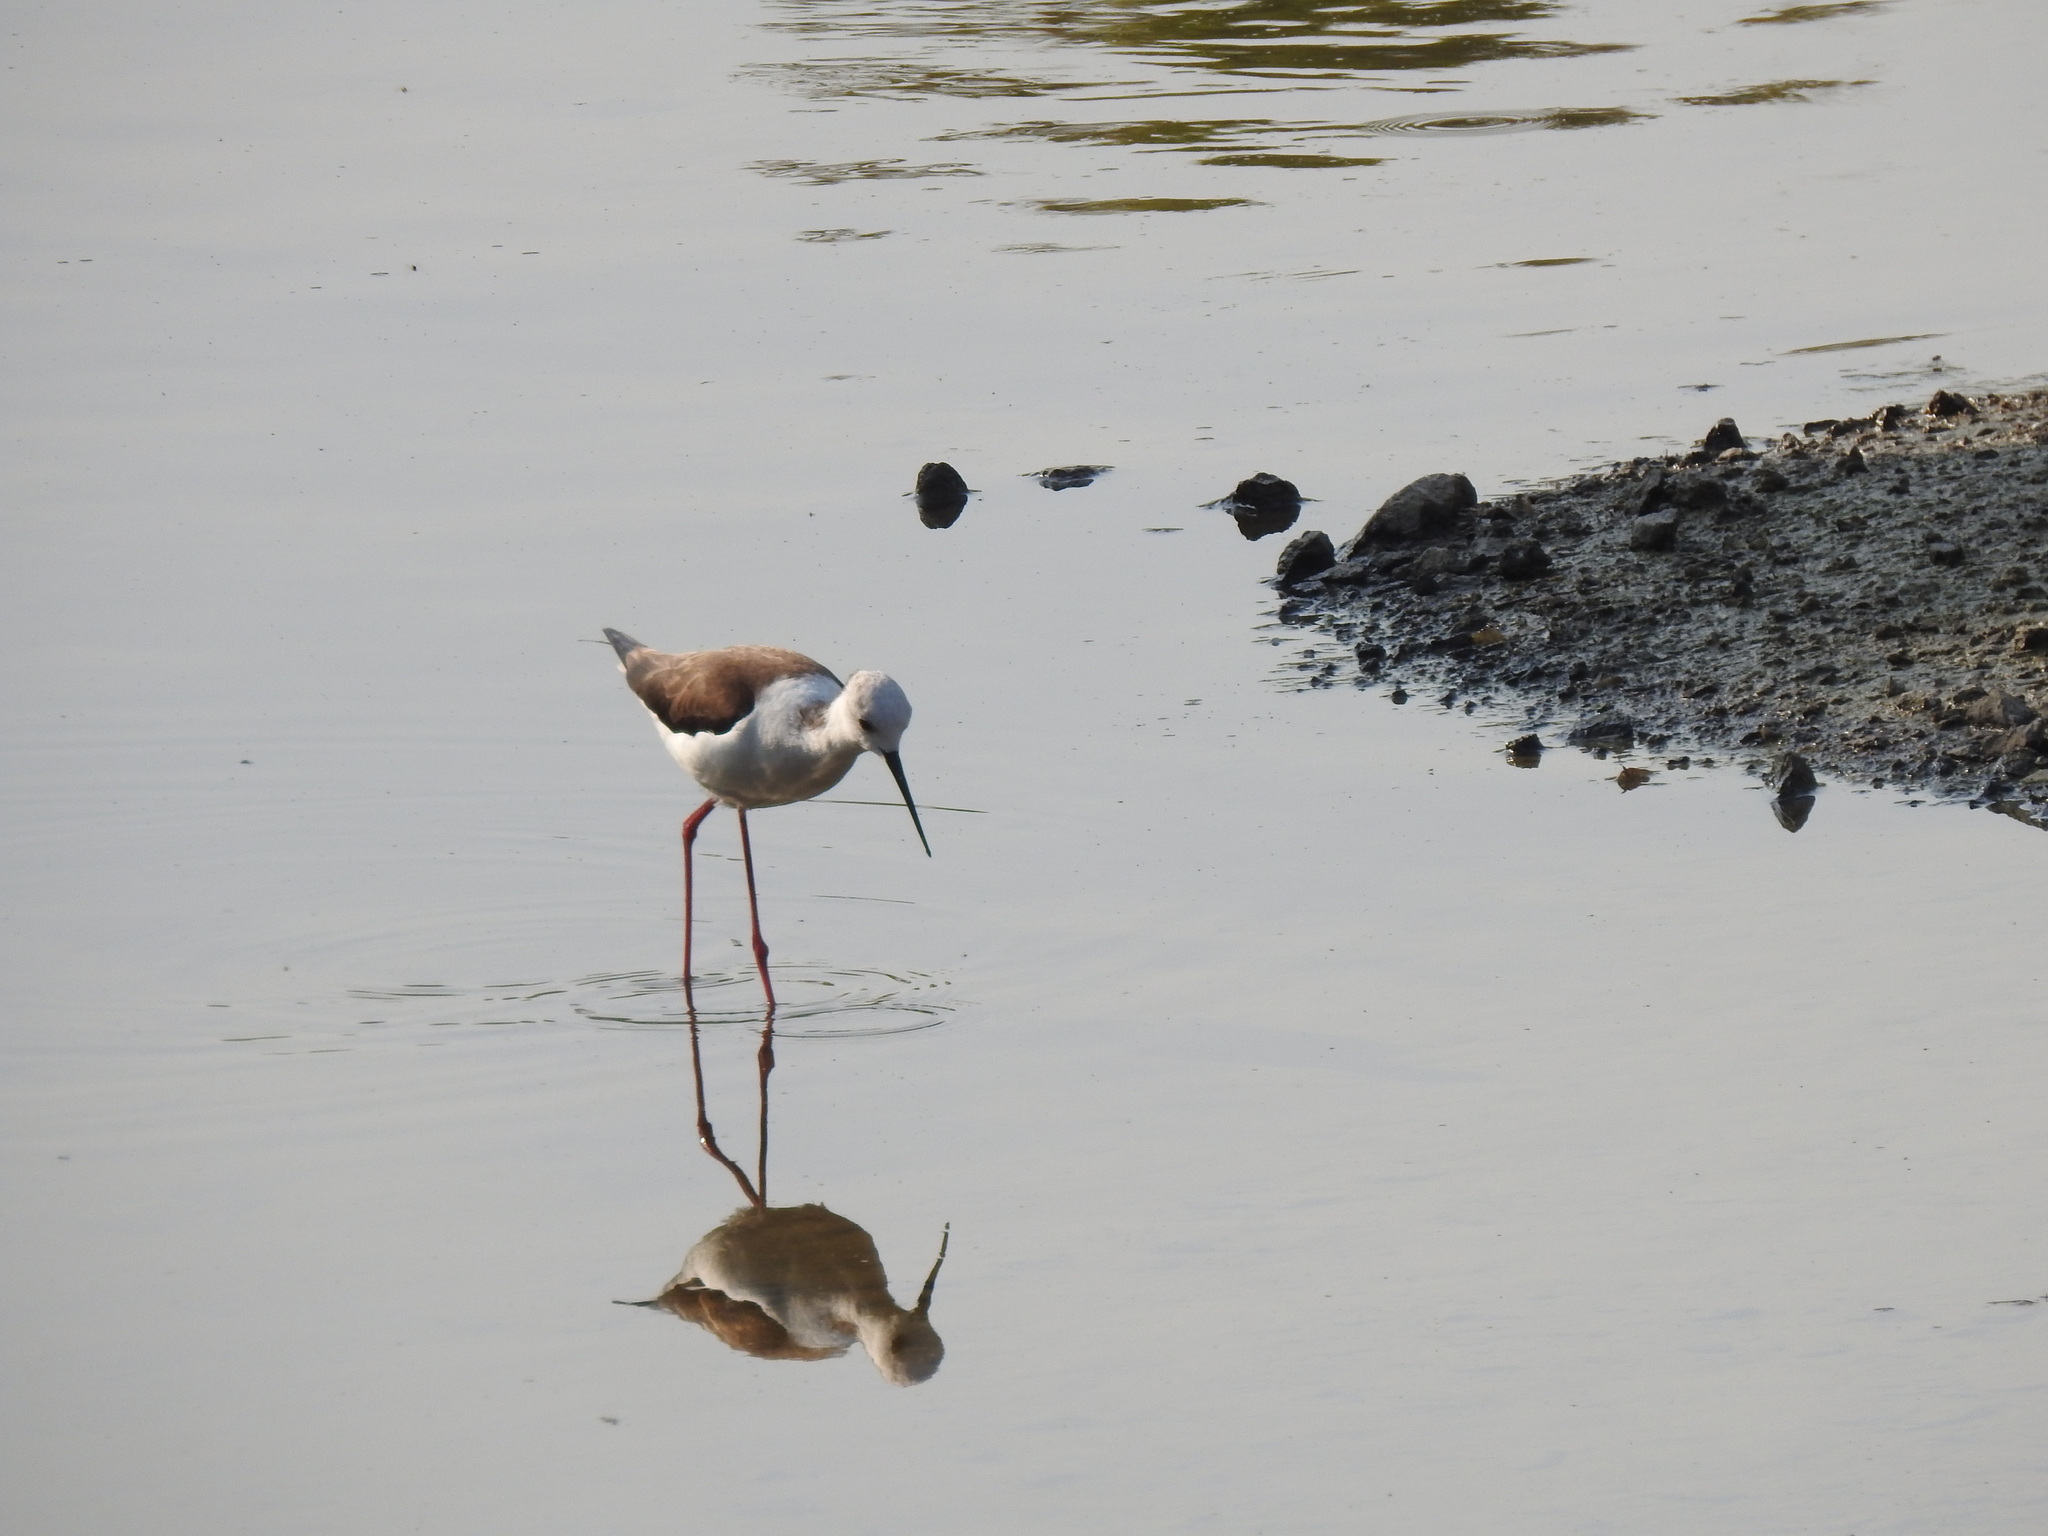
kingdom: Animalia
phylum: Chordata
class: Aves
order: Charadriiformes
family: Recurvirostridae
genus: Himantopus
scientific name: Himantopus himantopus
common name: Black-winged stilt
